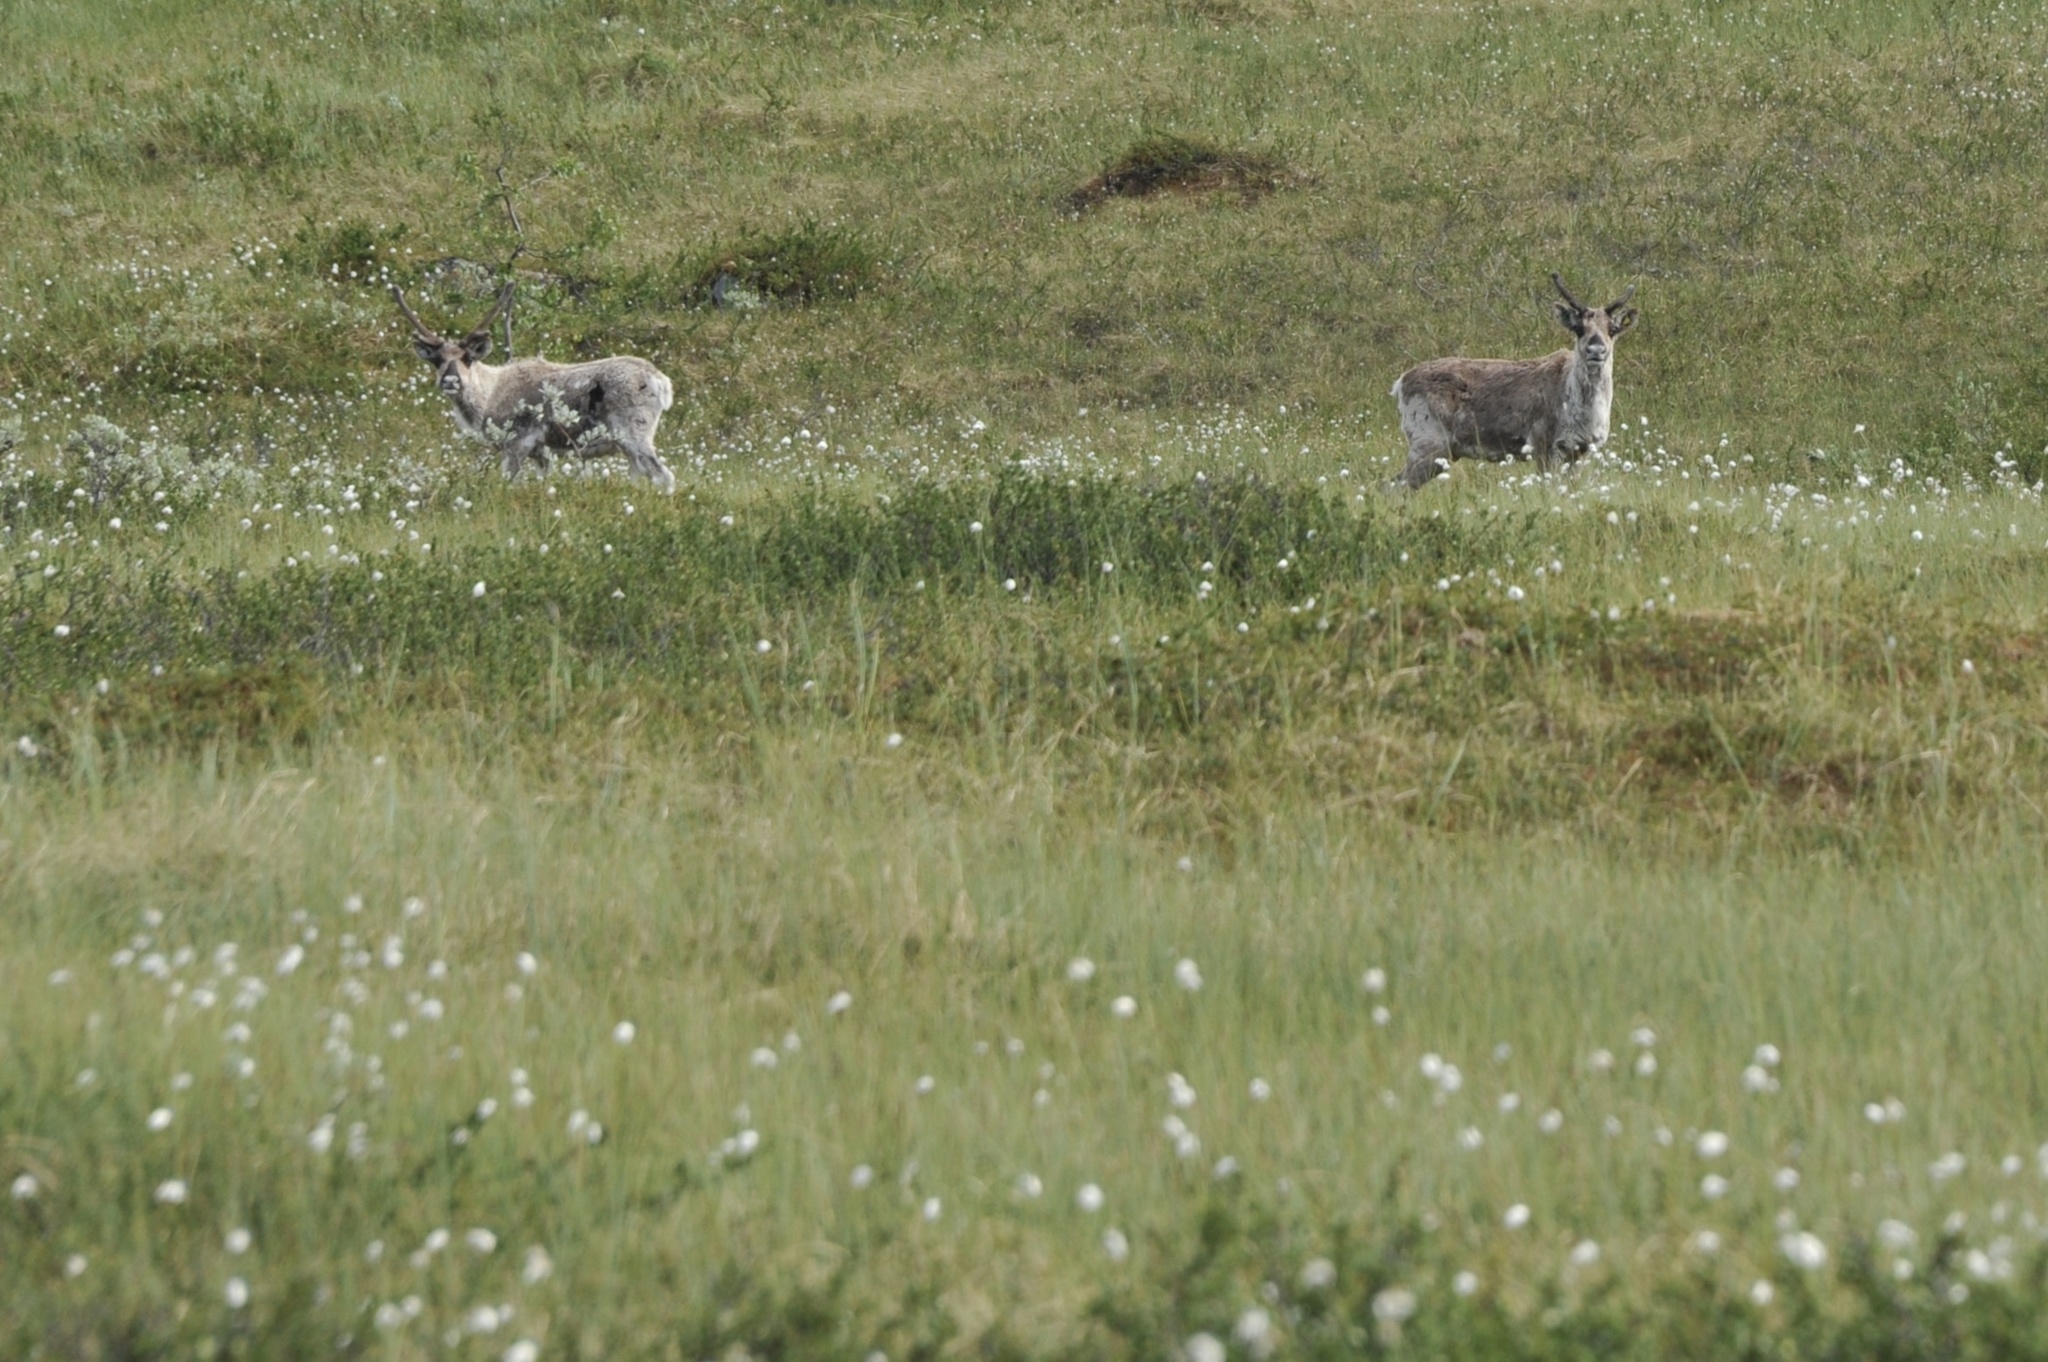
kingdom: Animalia
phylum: Chordata
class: Mammalia
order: Artiodactyla
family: Cervidae
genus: Rangifer
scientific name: Rangifer tarandus
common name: Reindeer
